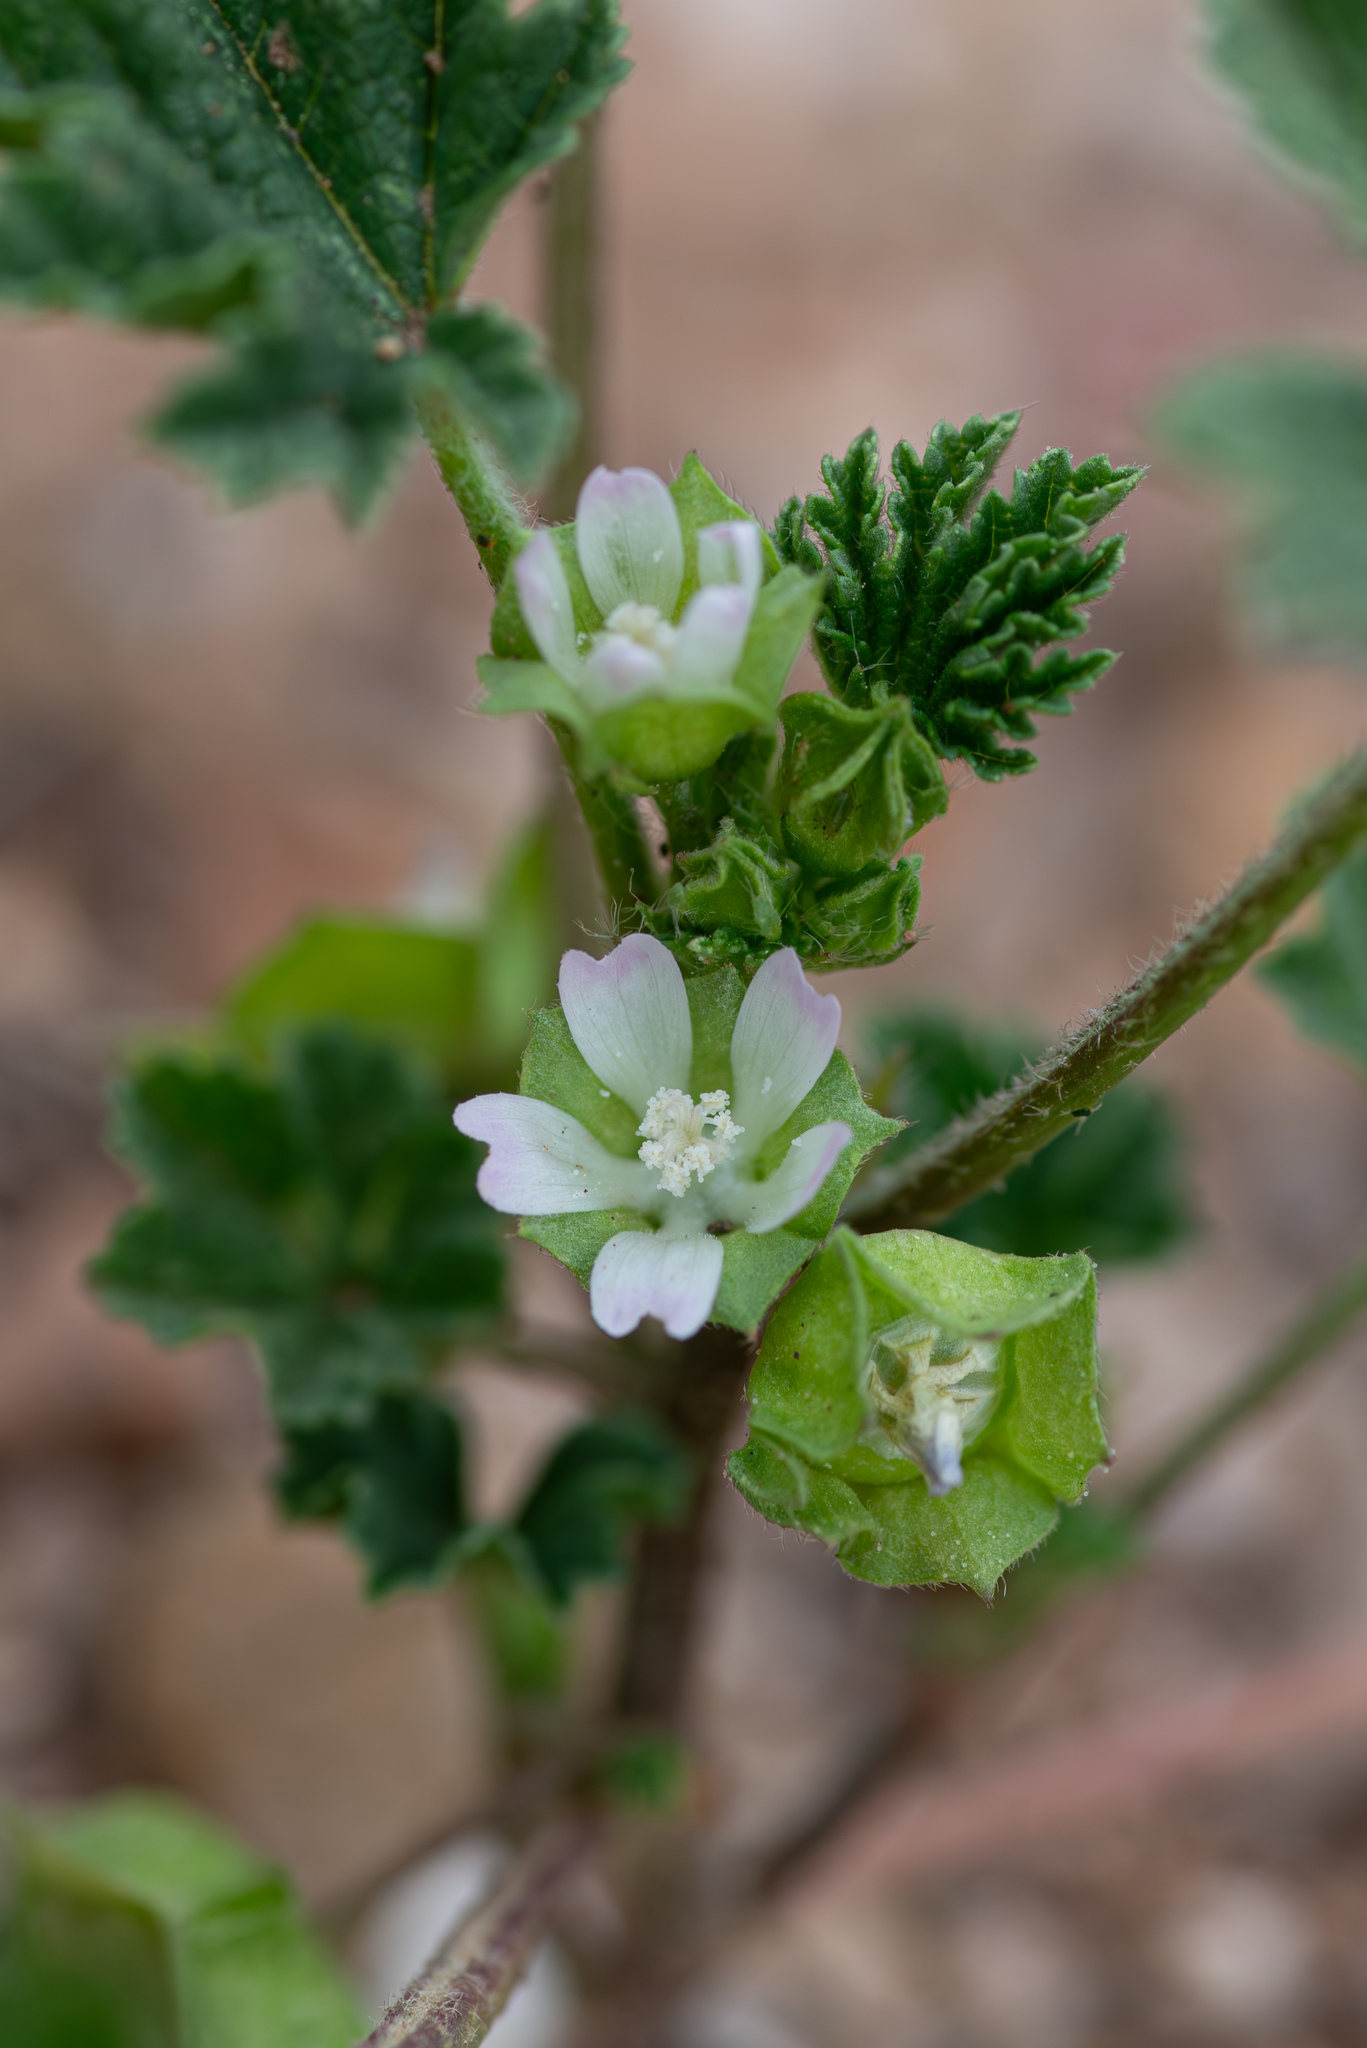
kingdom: Plantae
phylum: Tracheophyta
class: Magnoliopsida
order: Malvales
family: Malvaceae
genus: Malva
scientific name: Malva parviflora
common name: Least mallow
